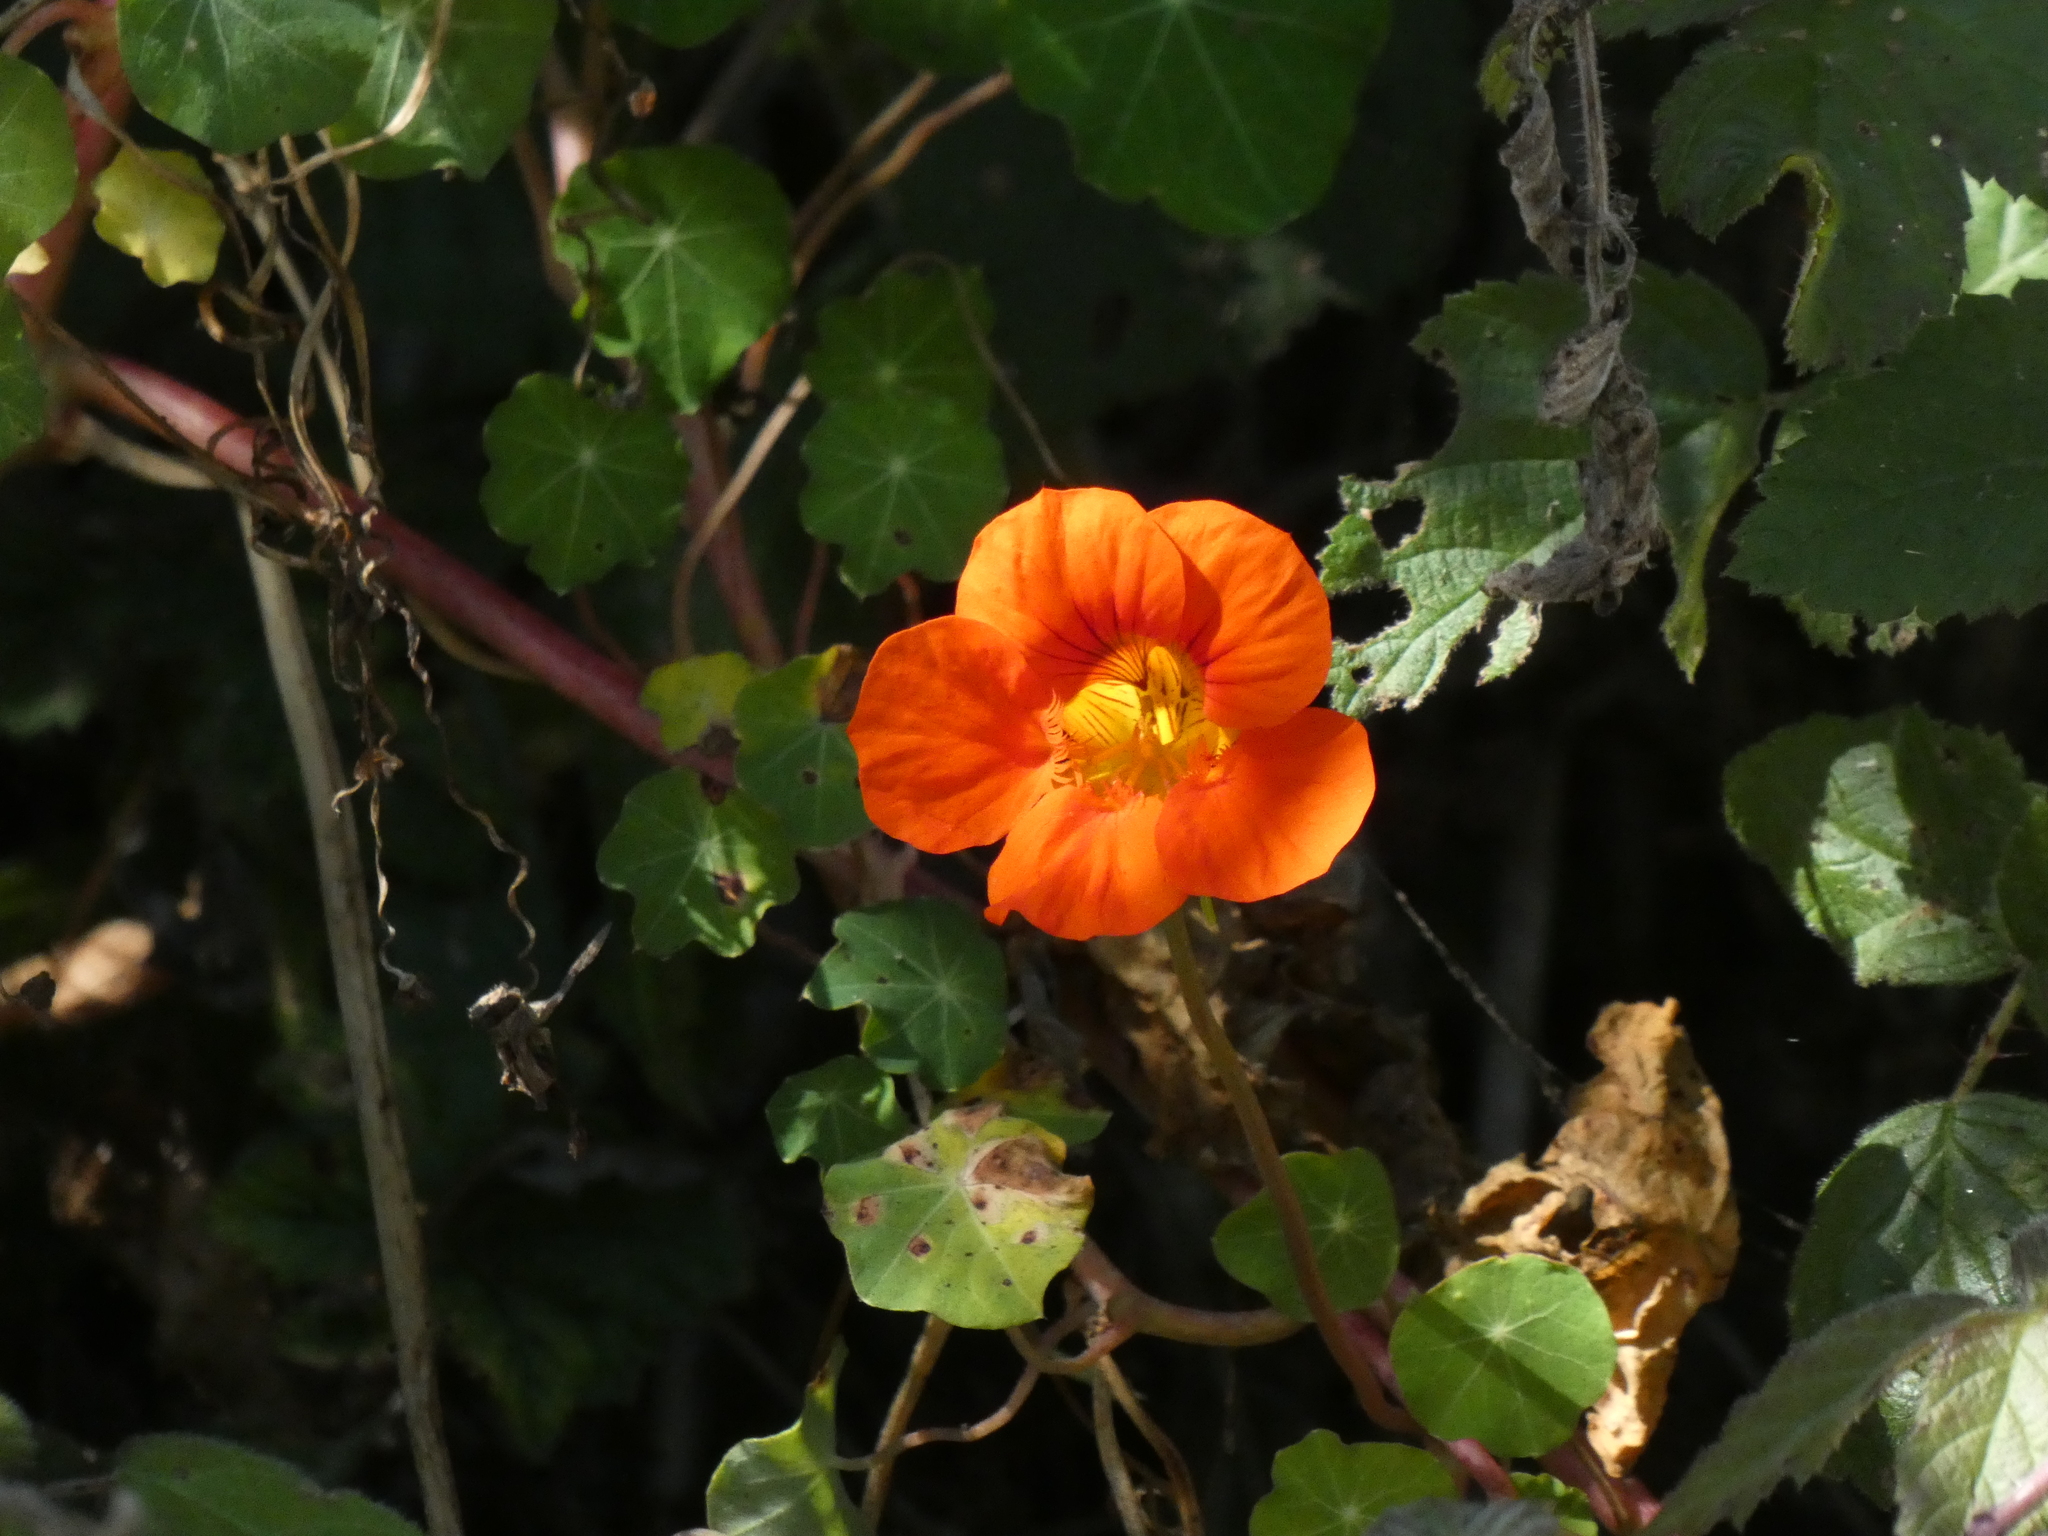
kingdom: Plantae
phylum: Tracheophyta
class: Magnoliopsida
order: Brassicales
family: Tropaeolaceae
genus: Tropaeolum
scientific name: Tropaeolum majus
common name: Nasturtium
